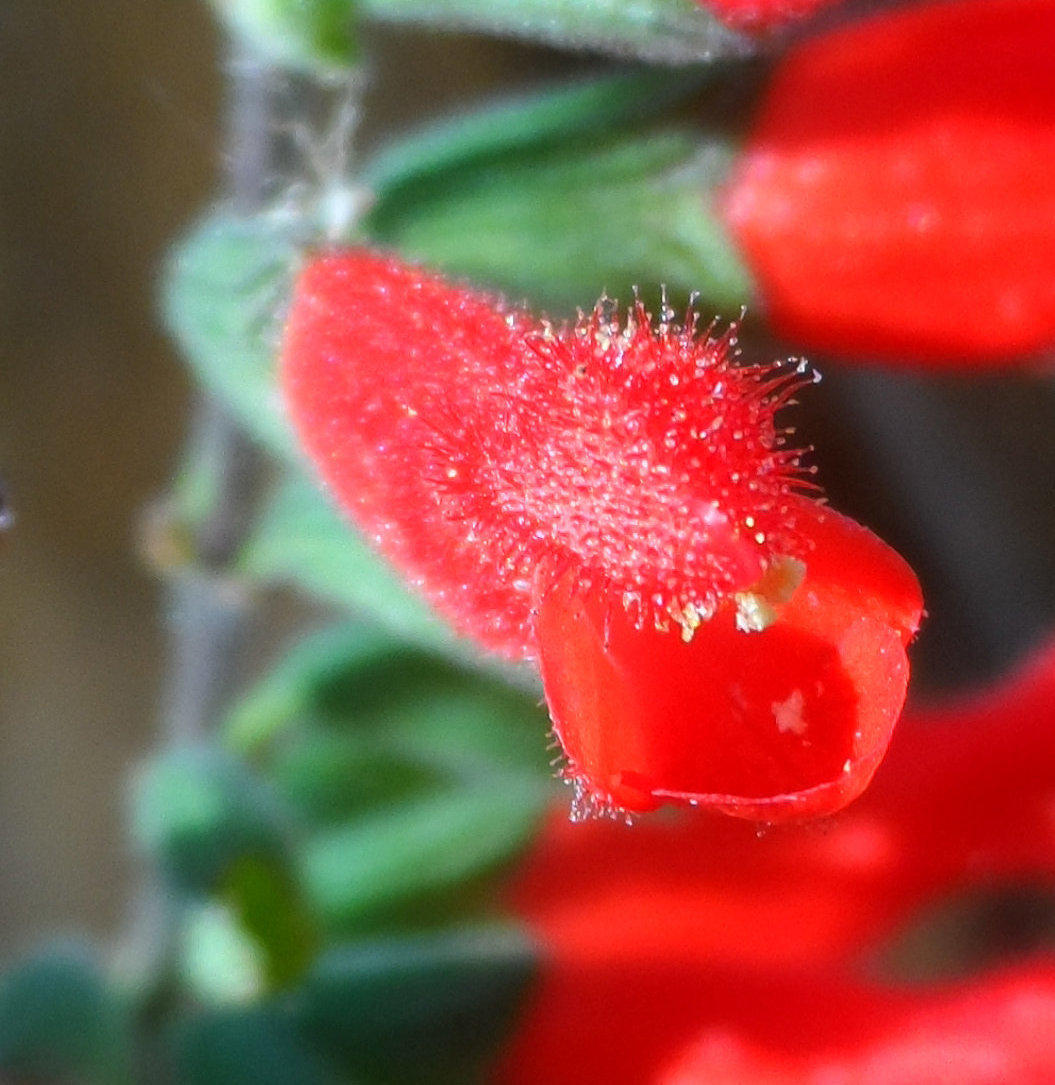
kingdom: Plantae
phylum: Tracheophyta
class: Magnoliopsida
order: Lamiales
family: Lamiaceae
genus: Salvia
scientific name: Salvia adenophora
